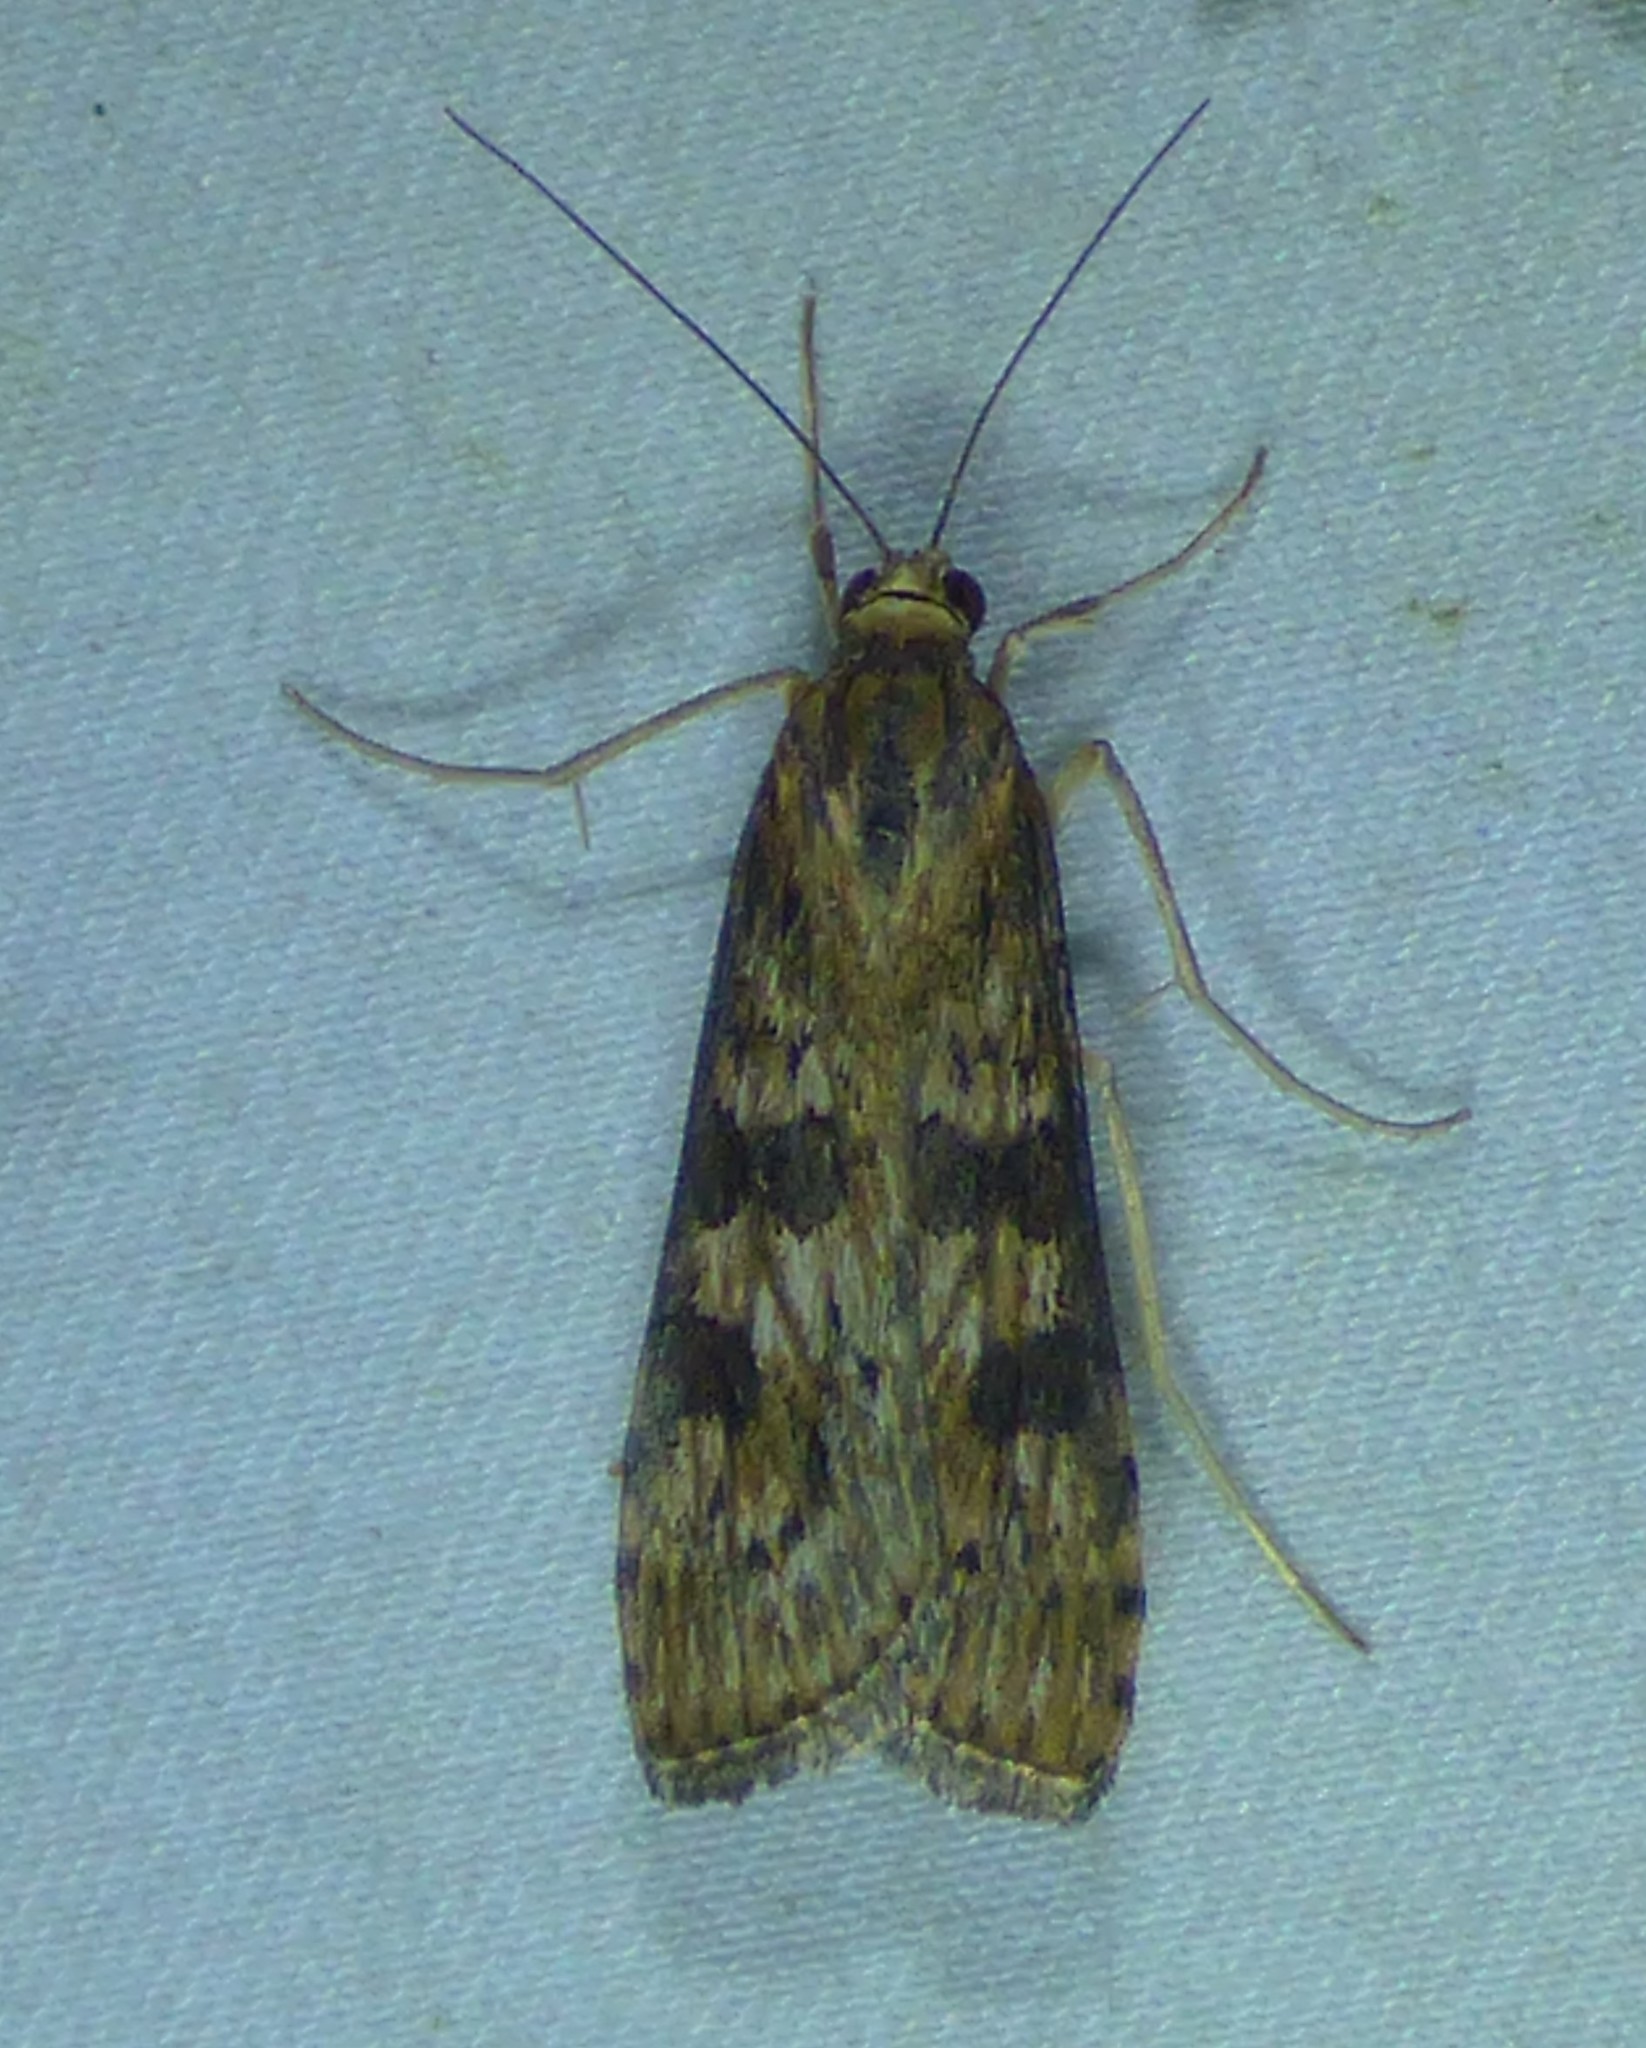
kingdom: Animalia
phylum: Arthropoda
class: Insecta
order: Lepidoptera
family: Crambidae
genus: Nomophila
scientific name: Nomophila nearctica
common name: American rush veneer
